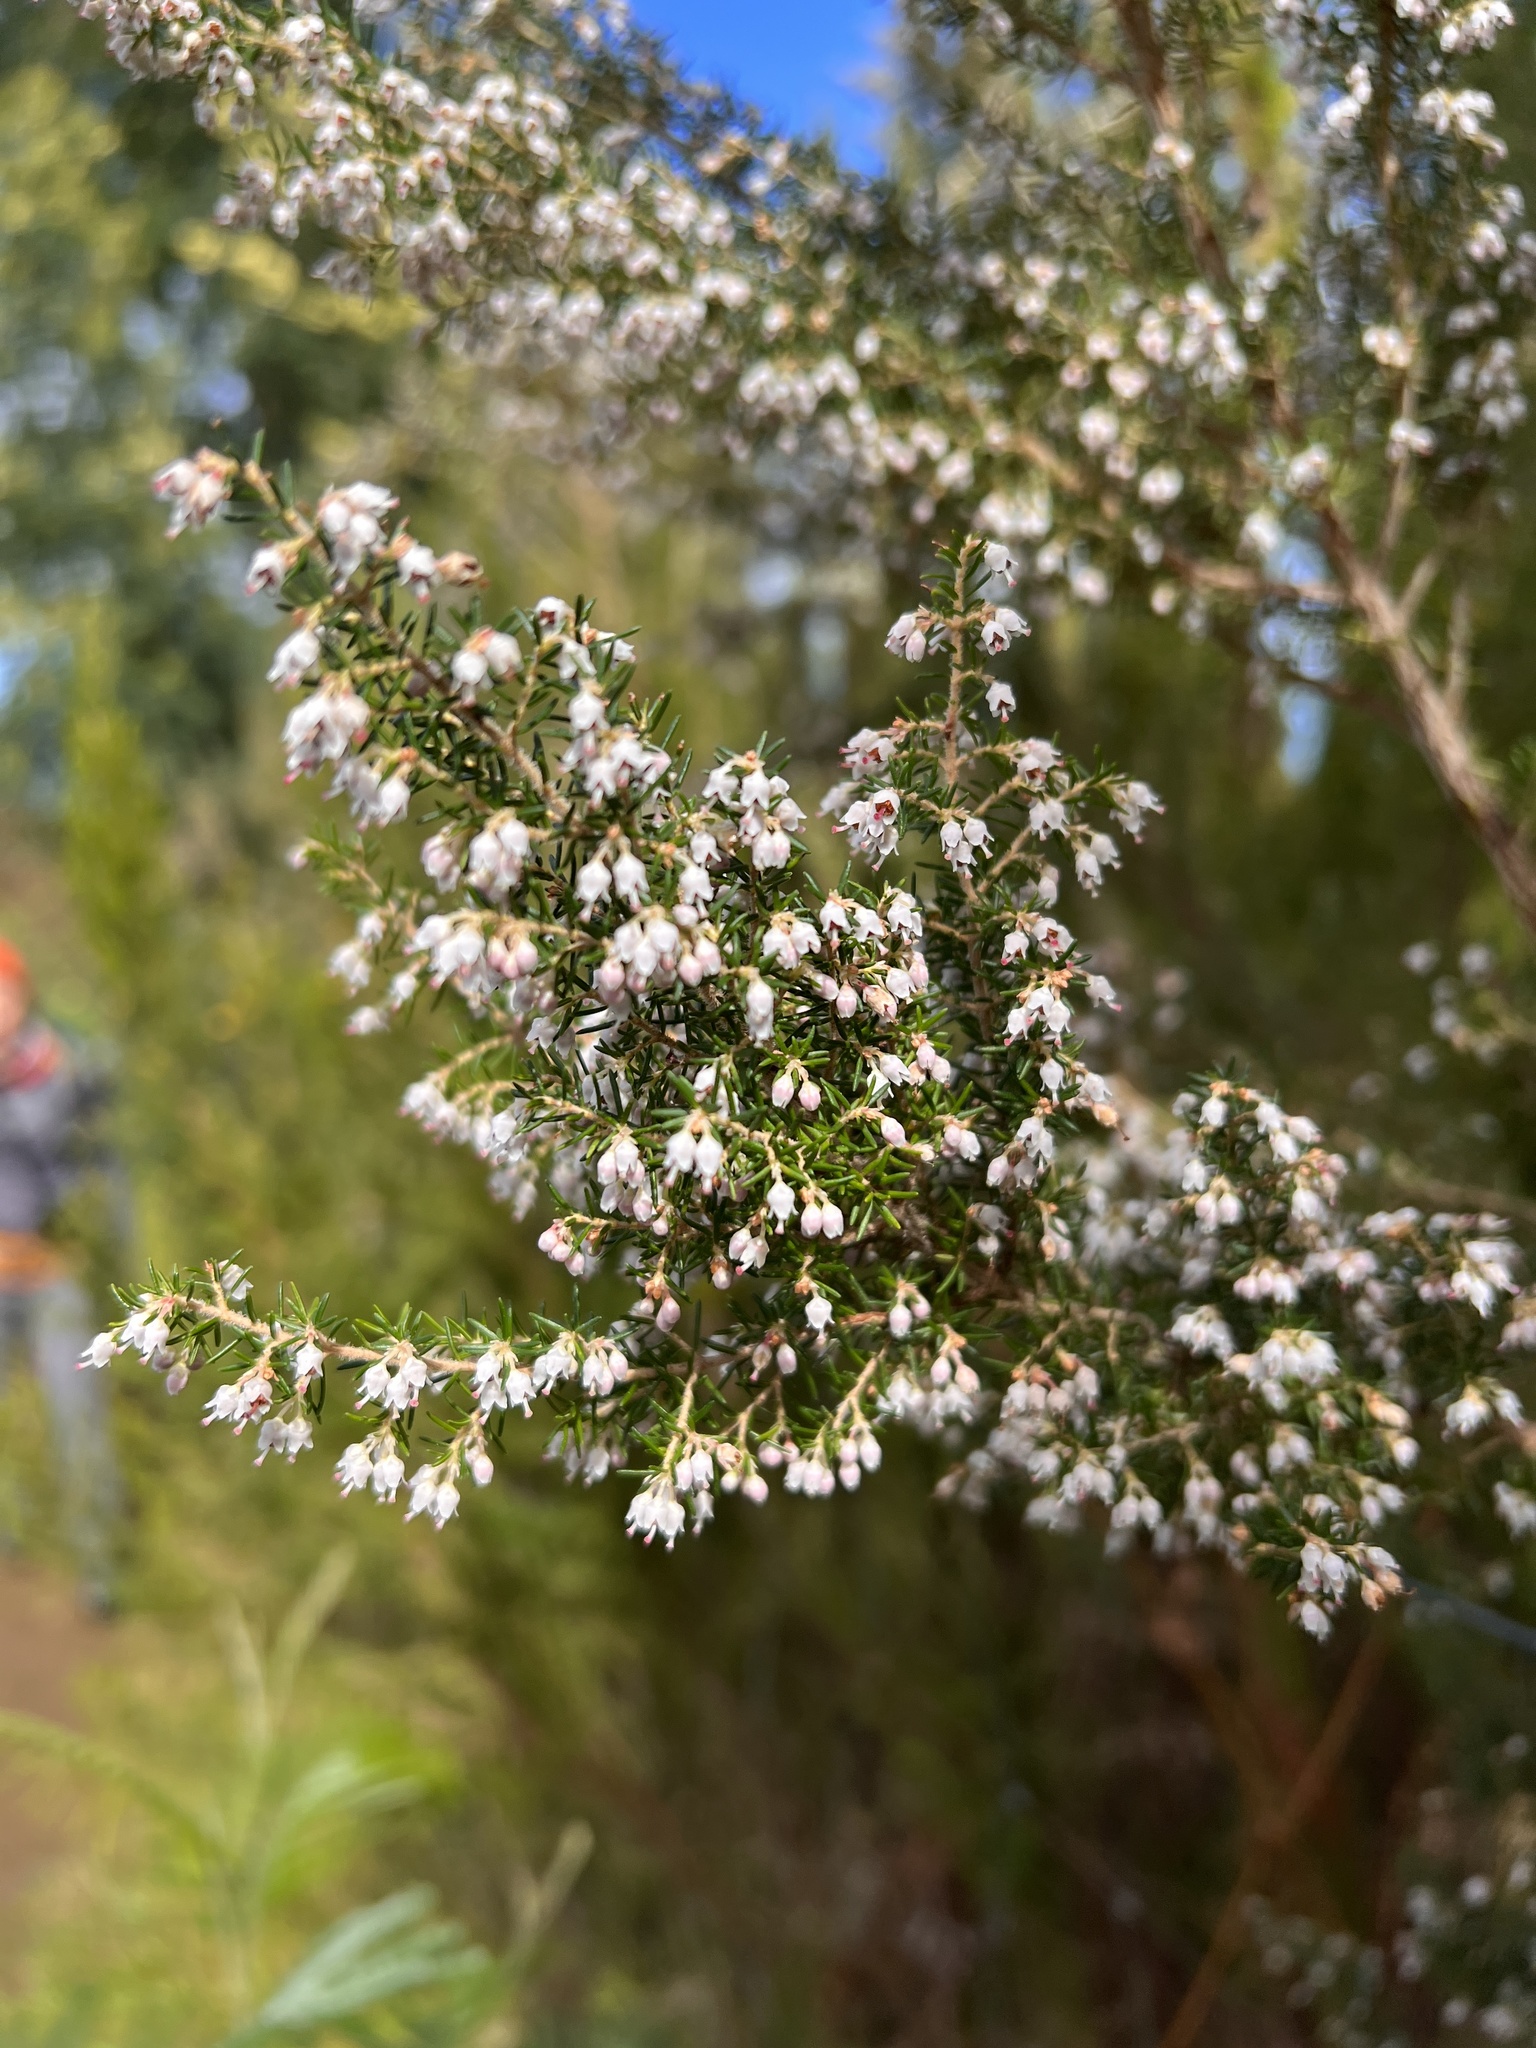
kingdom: Plantae
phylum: Tracheophyta
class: Magnoliopsida
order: Ericales
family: Ericaceae
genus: Erica
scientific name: Erica canariensis
